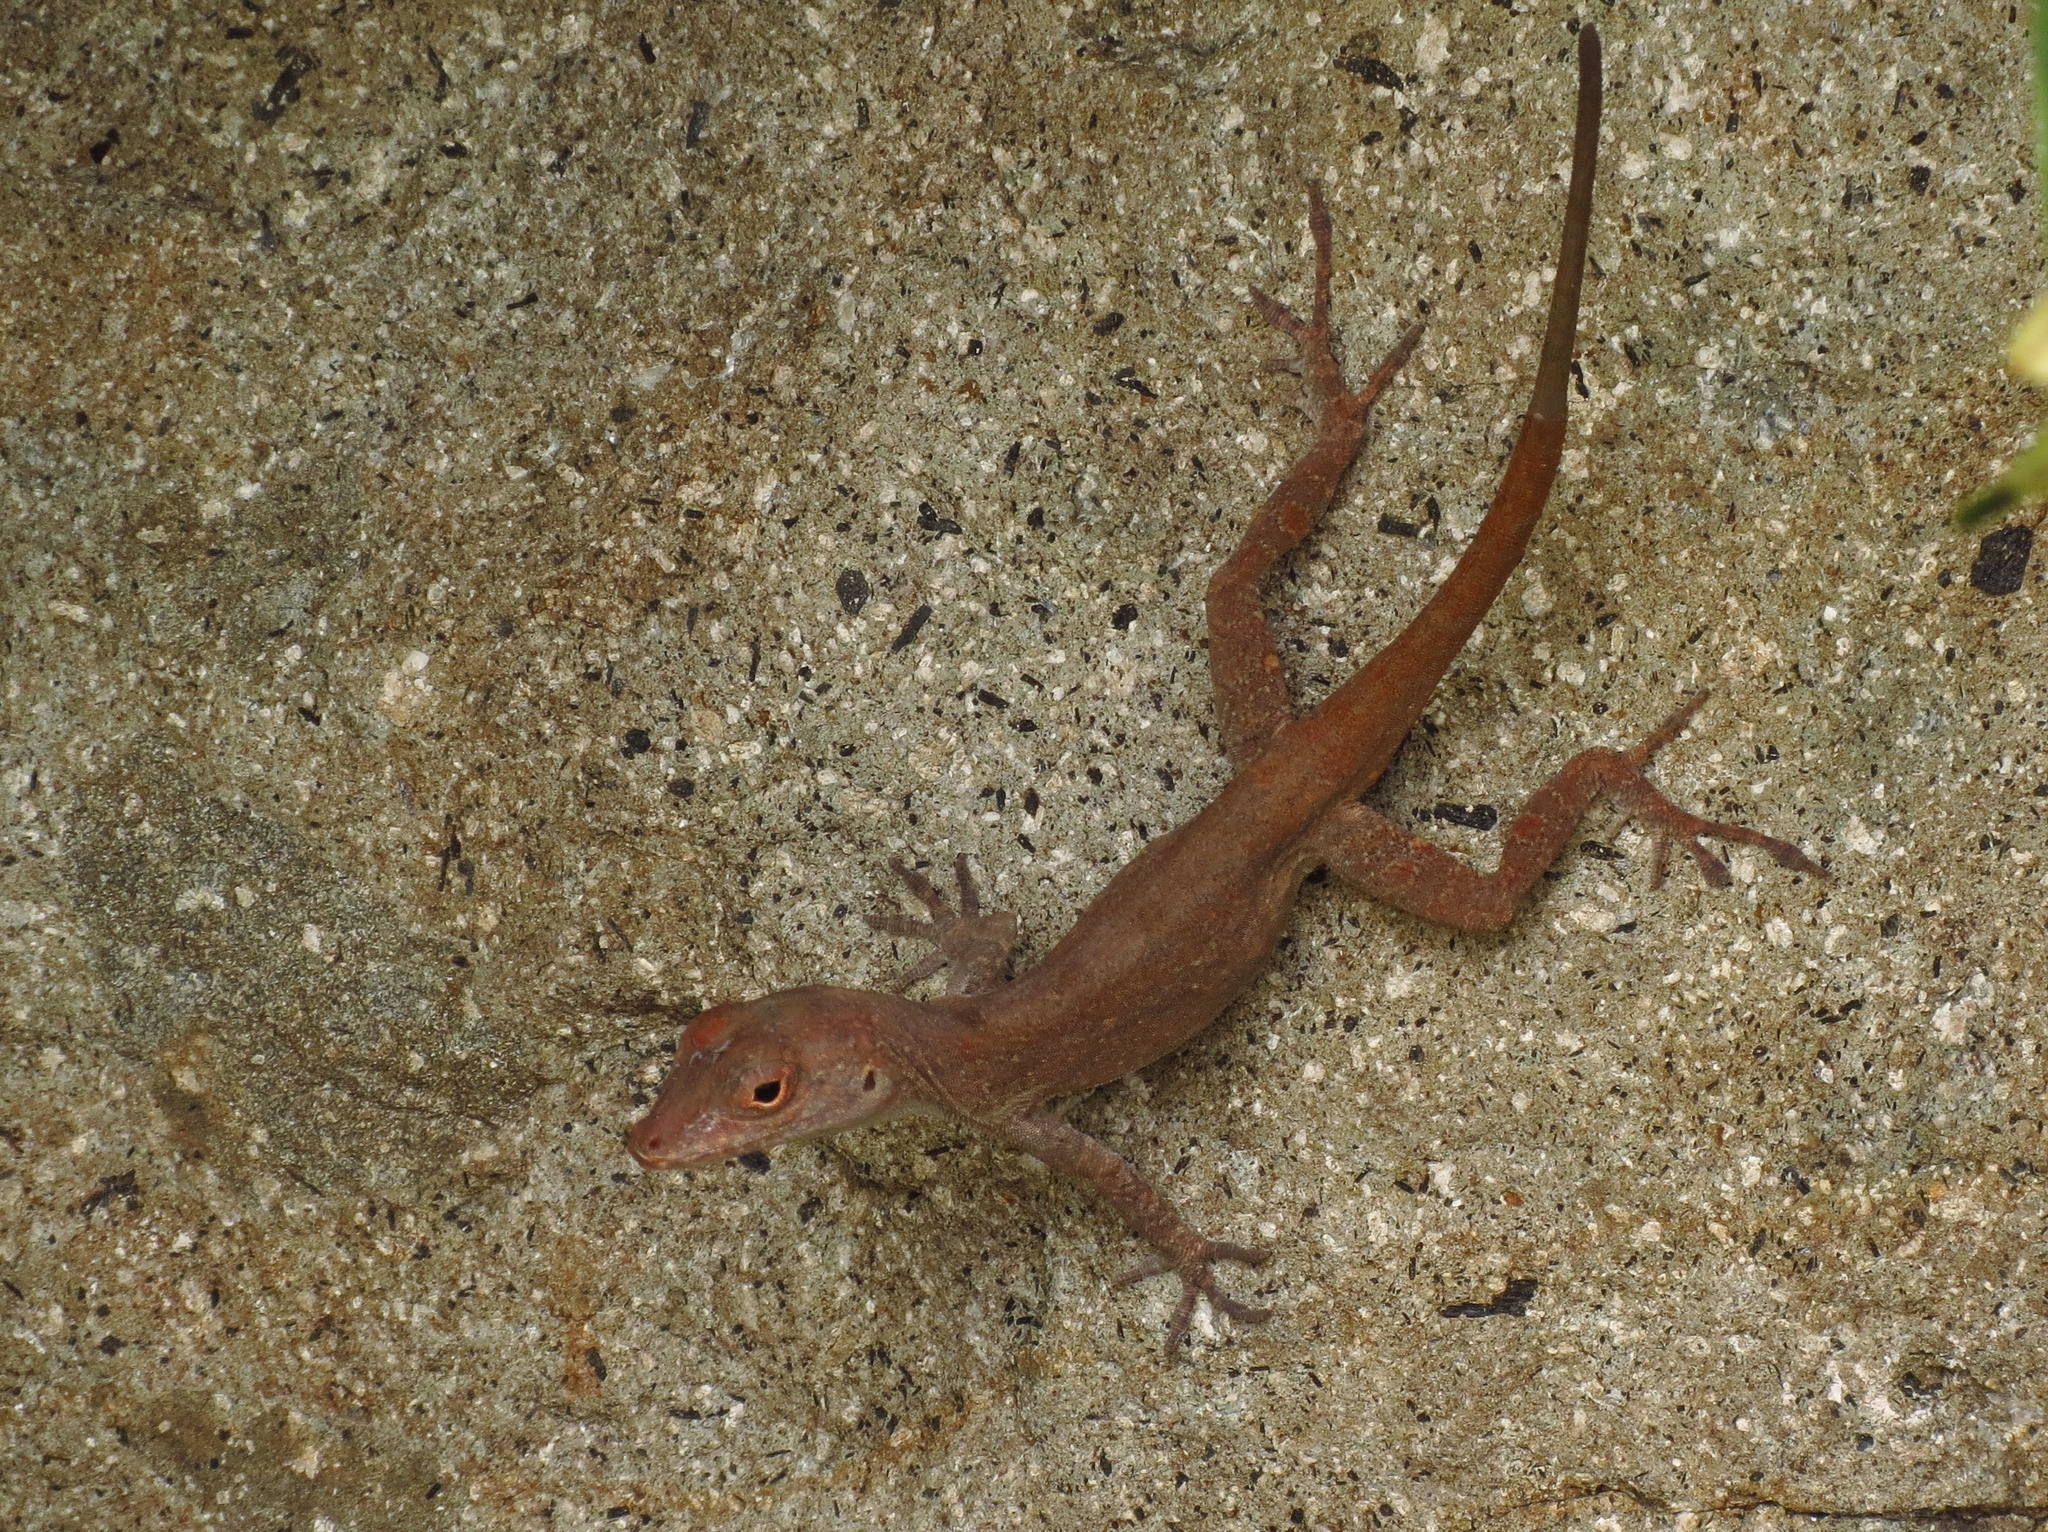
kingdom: Animalia
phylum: Chordata
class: Squamata
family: Dactyloidae
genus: Anolis
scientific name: Anolis cristatellus
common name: Crested anole
